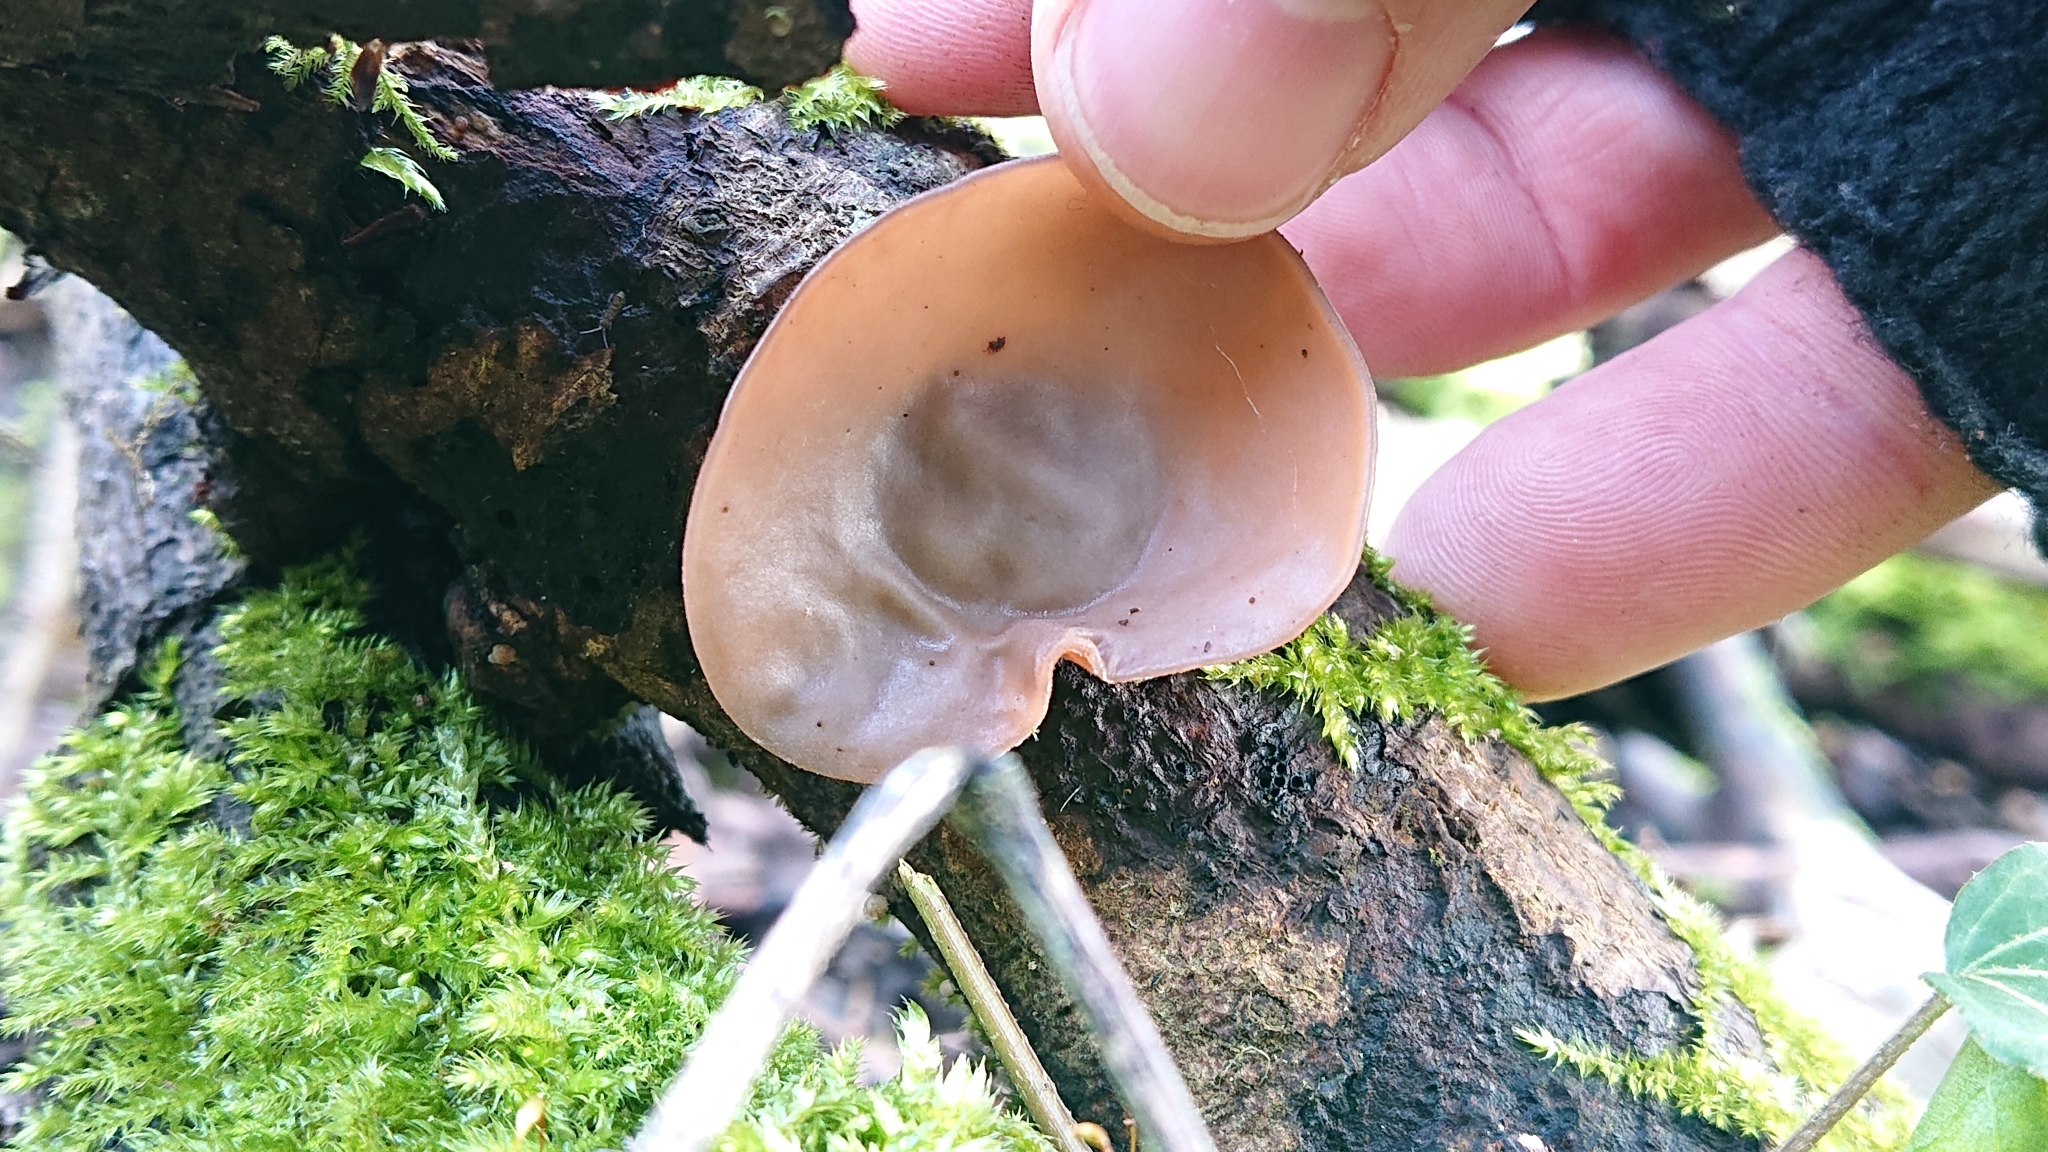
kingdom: Fungi
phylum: Basidiomycota
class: Agaricomycetes
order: Auriculariales
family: Auriculariaceae
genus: Auricularia
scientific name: Auricularia auricula-judae
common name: Jelly ear
